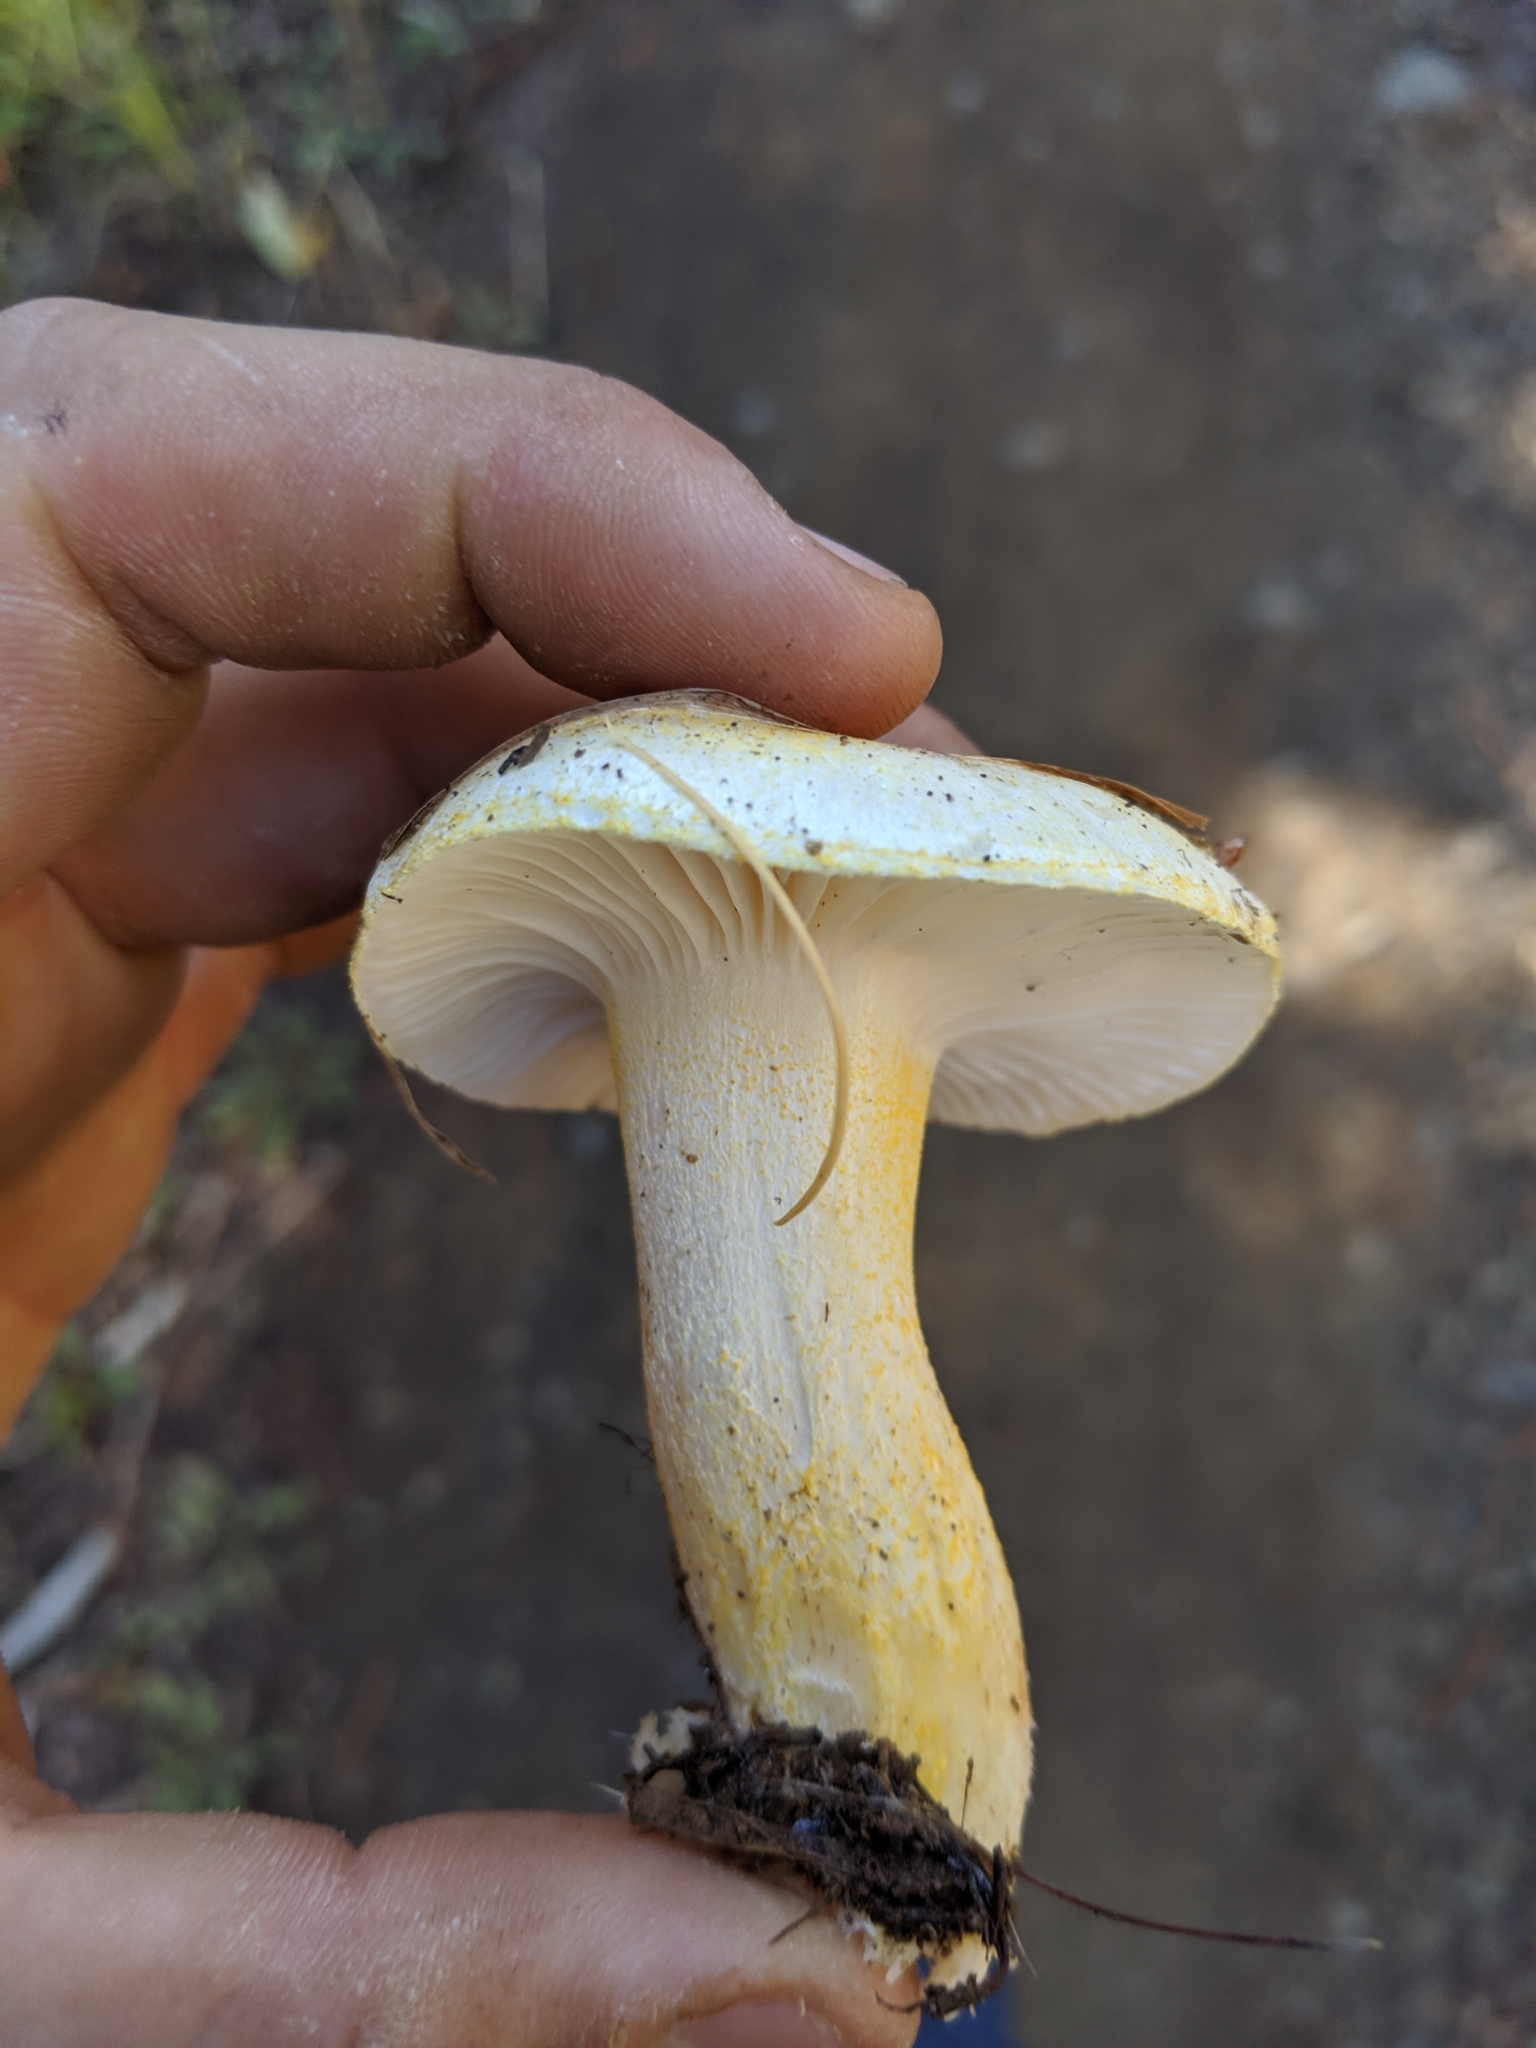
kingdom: Fungi
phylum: Basidiomycota
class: Agaricomycetes
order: Agaricales
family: Hygrophoraceae
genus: Hygrophorus
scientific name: Hygrophorus chrysodon
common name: Gold flecked woodwax
